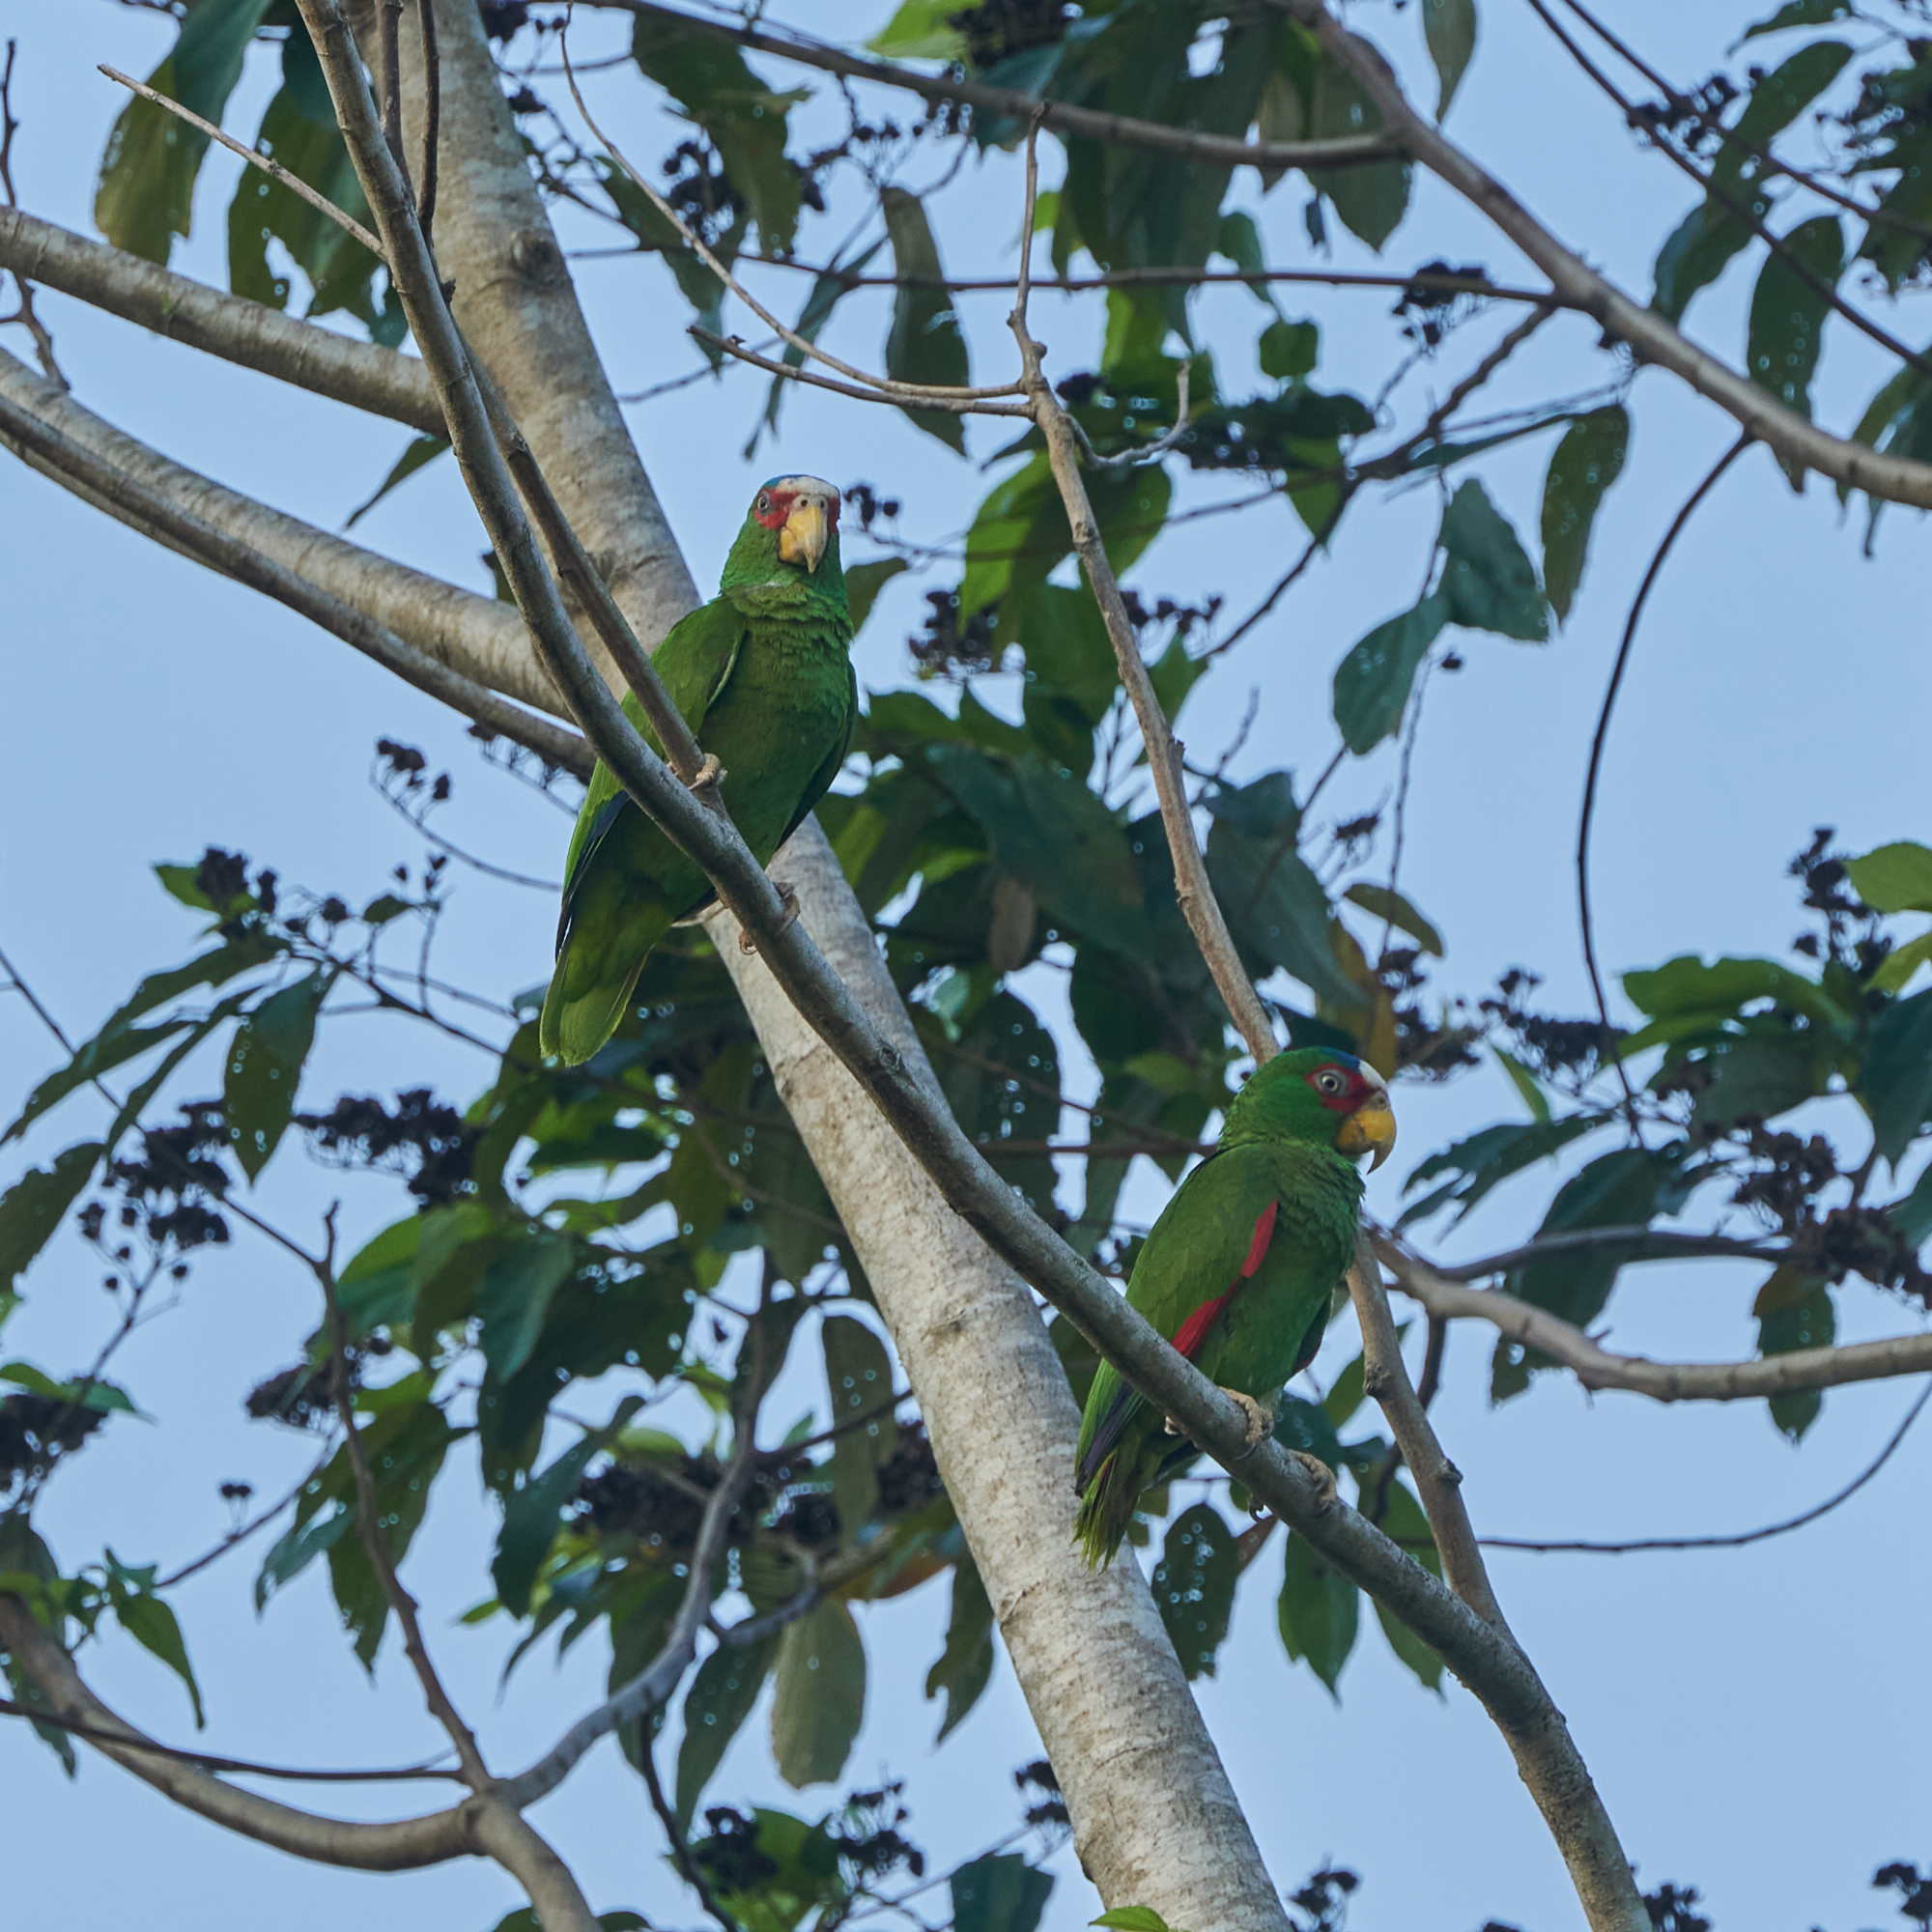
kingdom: Animalia
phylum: Chordata
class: Aves
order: Psittaciformes
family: Psittacidae
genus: Amazona
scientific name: Amazona albifrons
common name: White-fronted amazon
